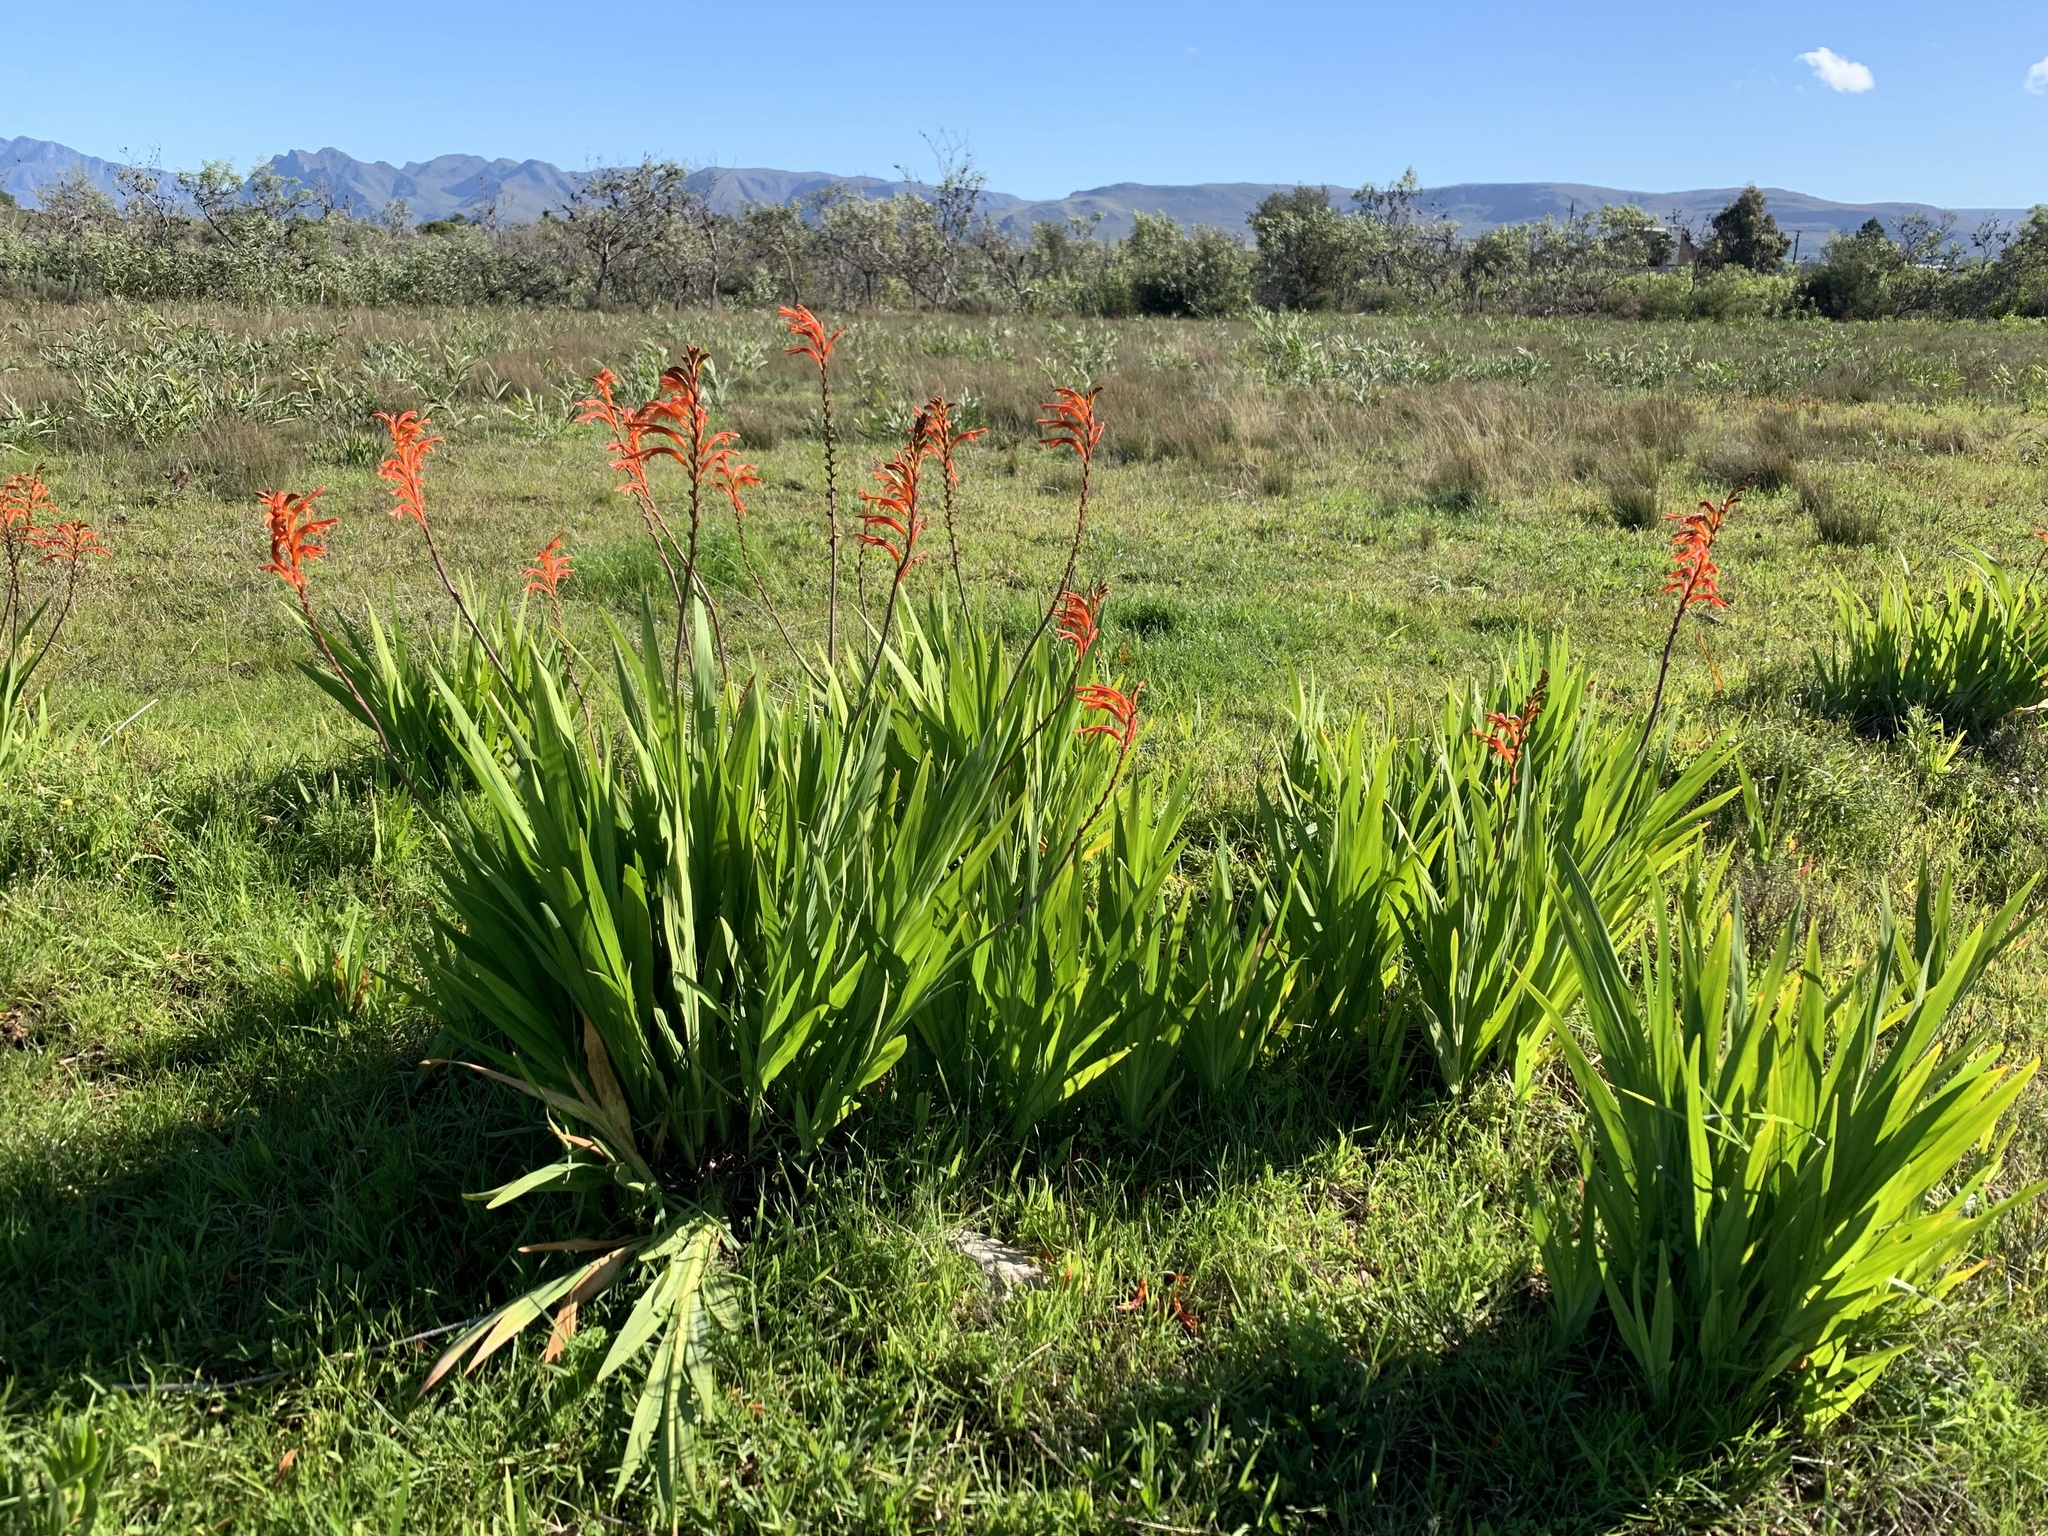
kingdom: Plantae
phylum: Tracheophyta
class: Liliopsida
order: Asparagales
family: Iridaceae
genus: Chasmanthe
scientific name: Chasmanthe floribunda
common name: African cornflag
